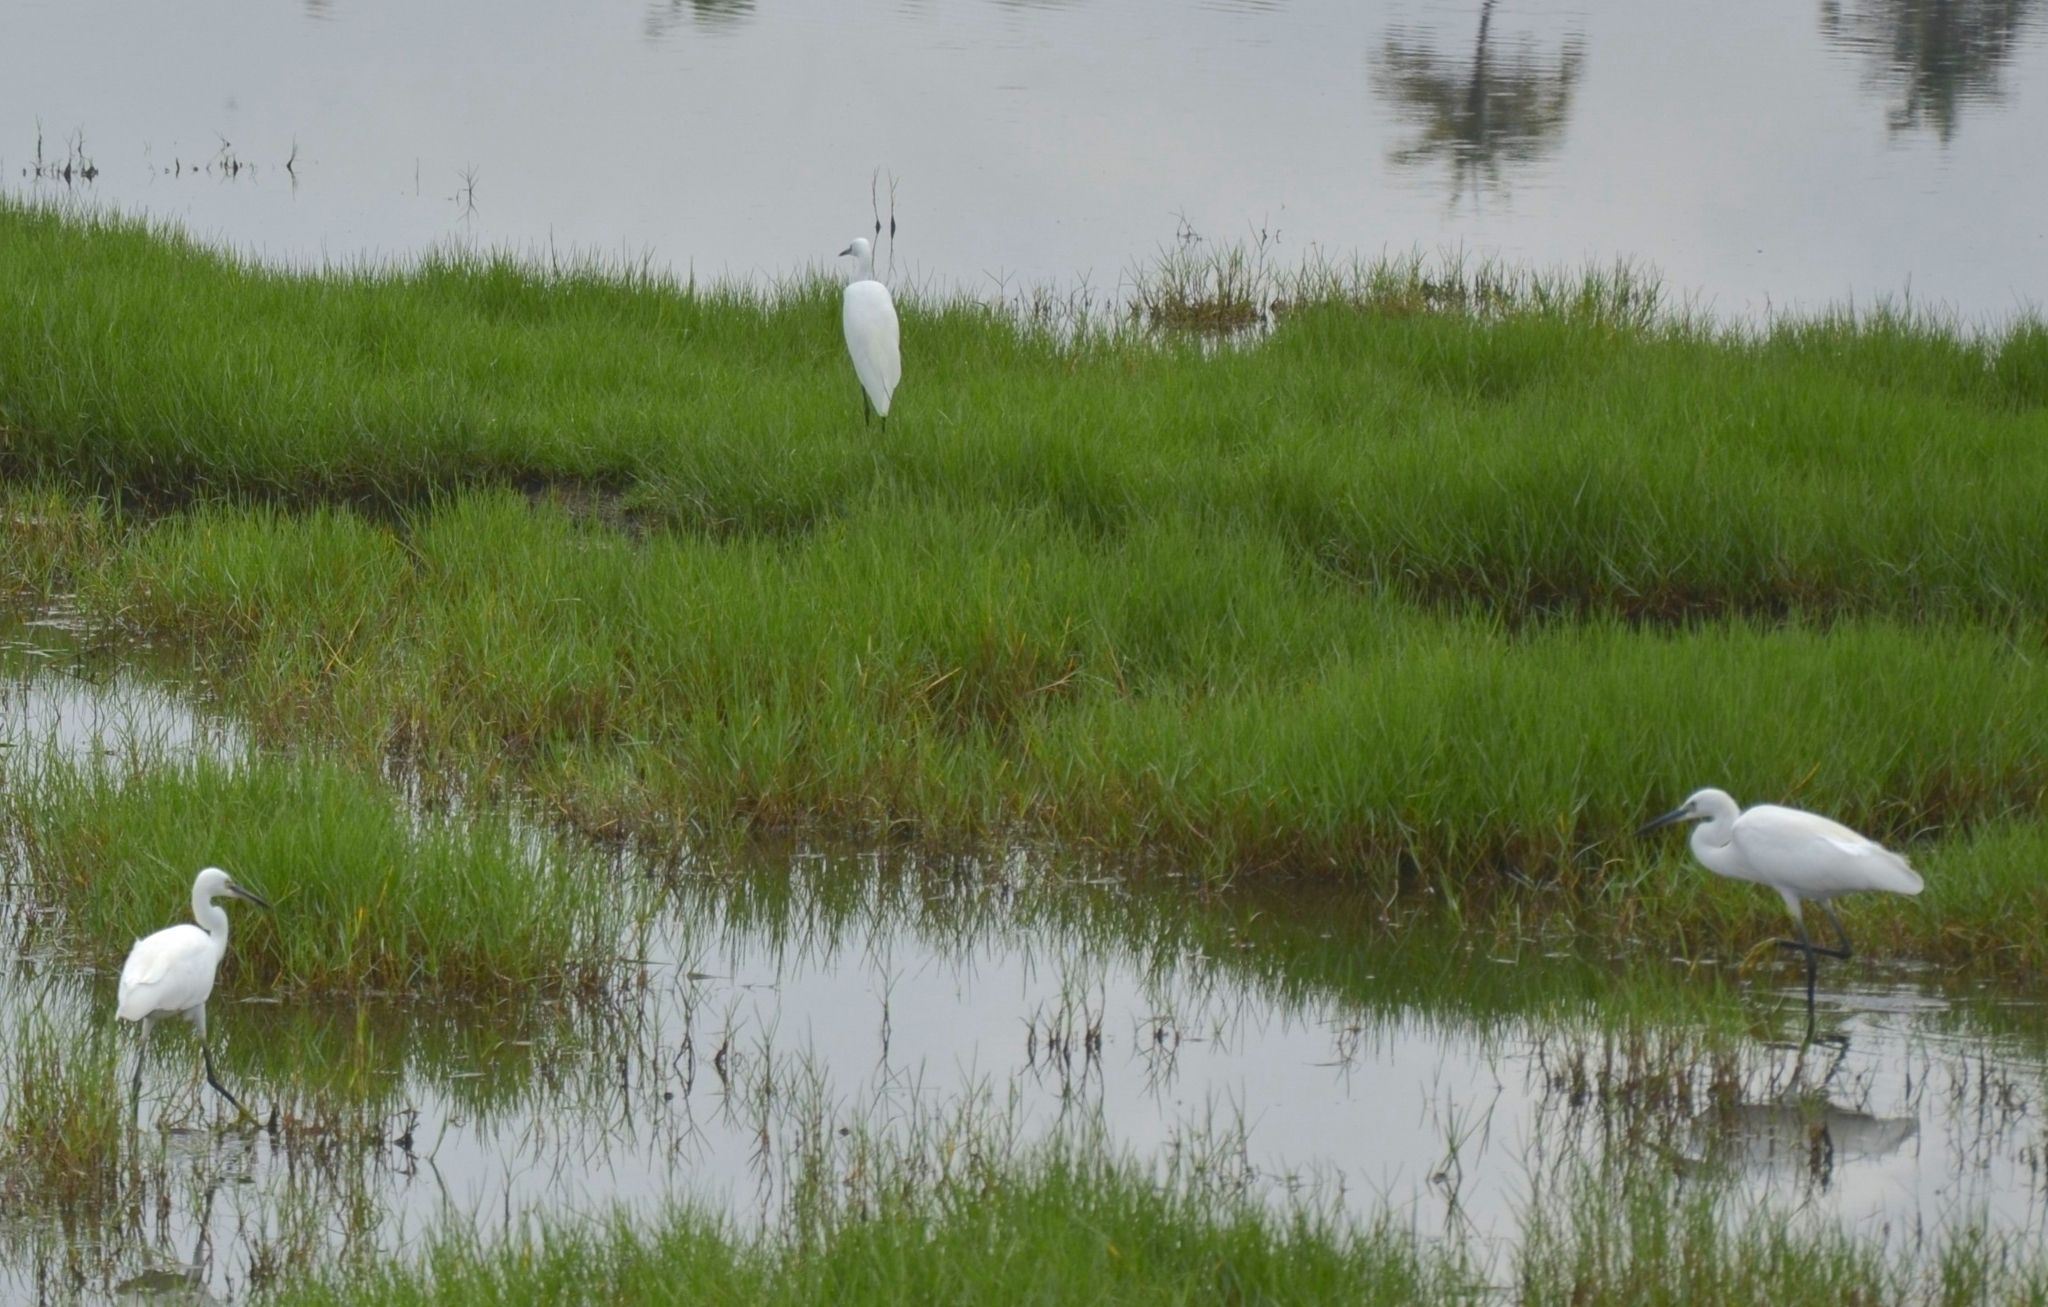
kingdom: Animalia
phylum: Chordata
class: Aves
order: Pelecaniformes
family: Ardeidae
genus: Egretta
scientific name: Egretta garzetta
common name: Little egret
